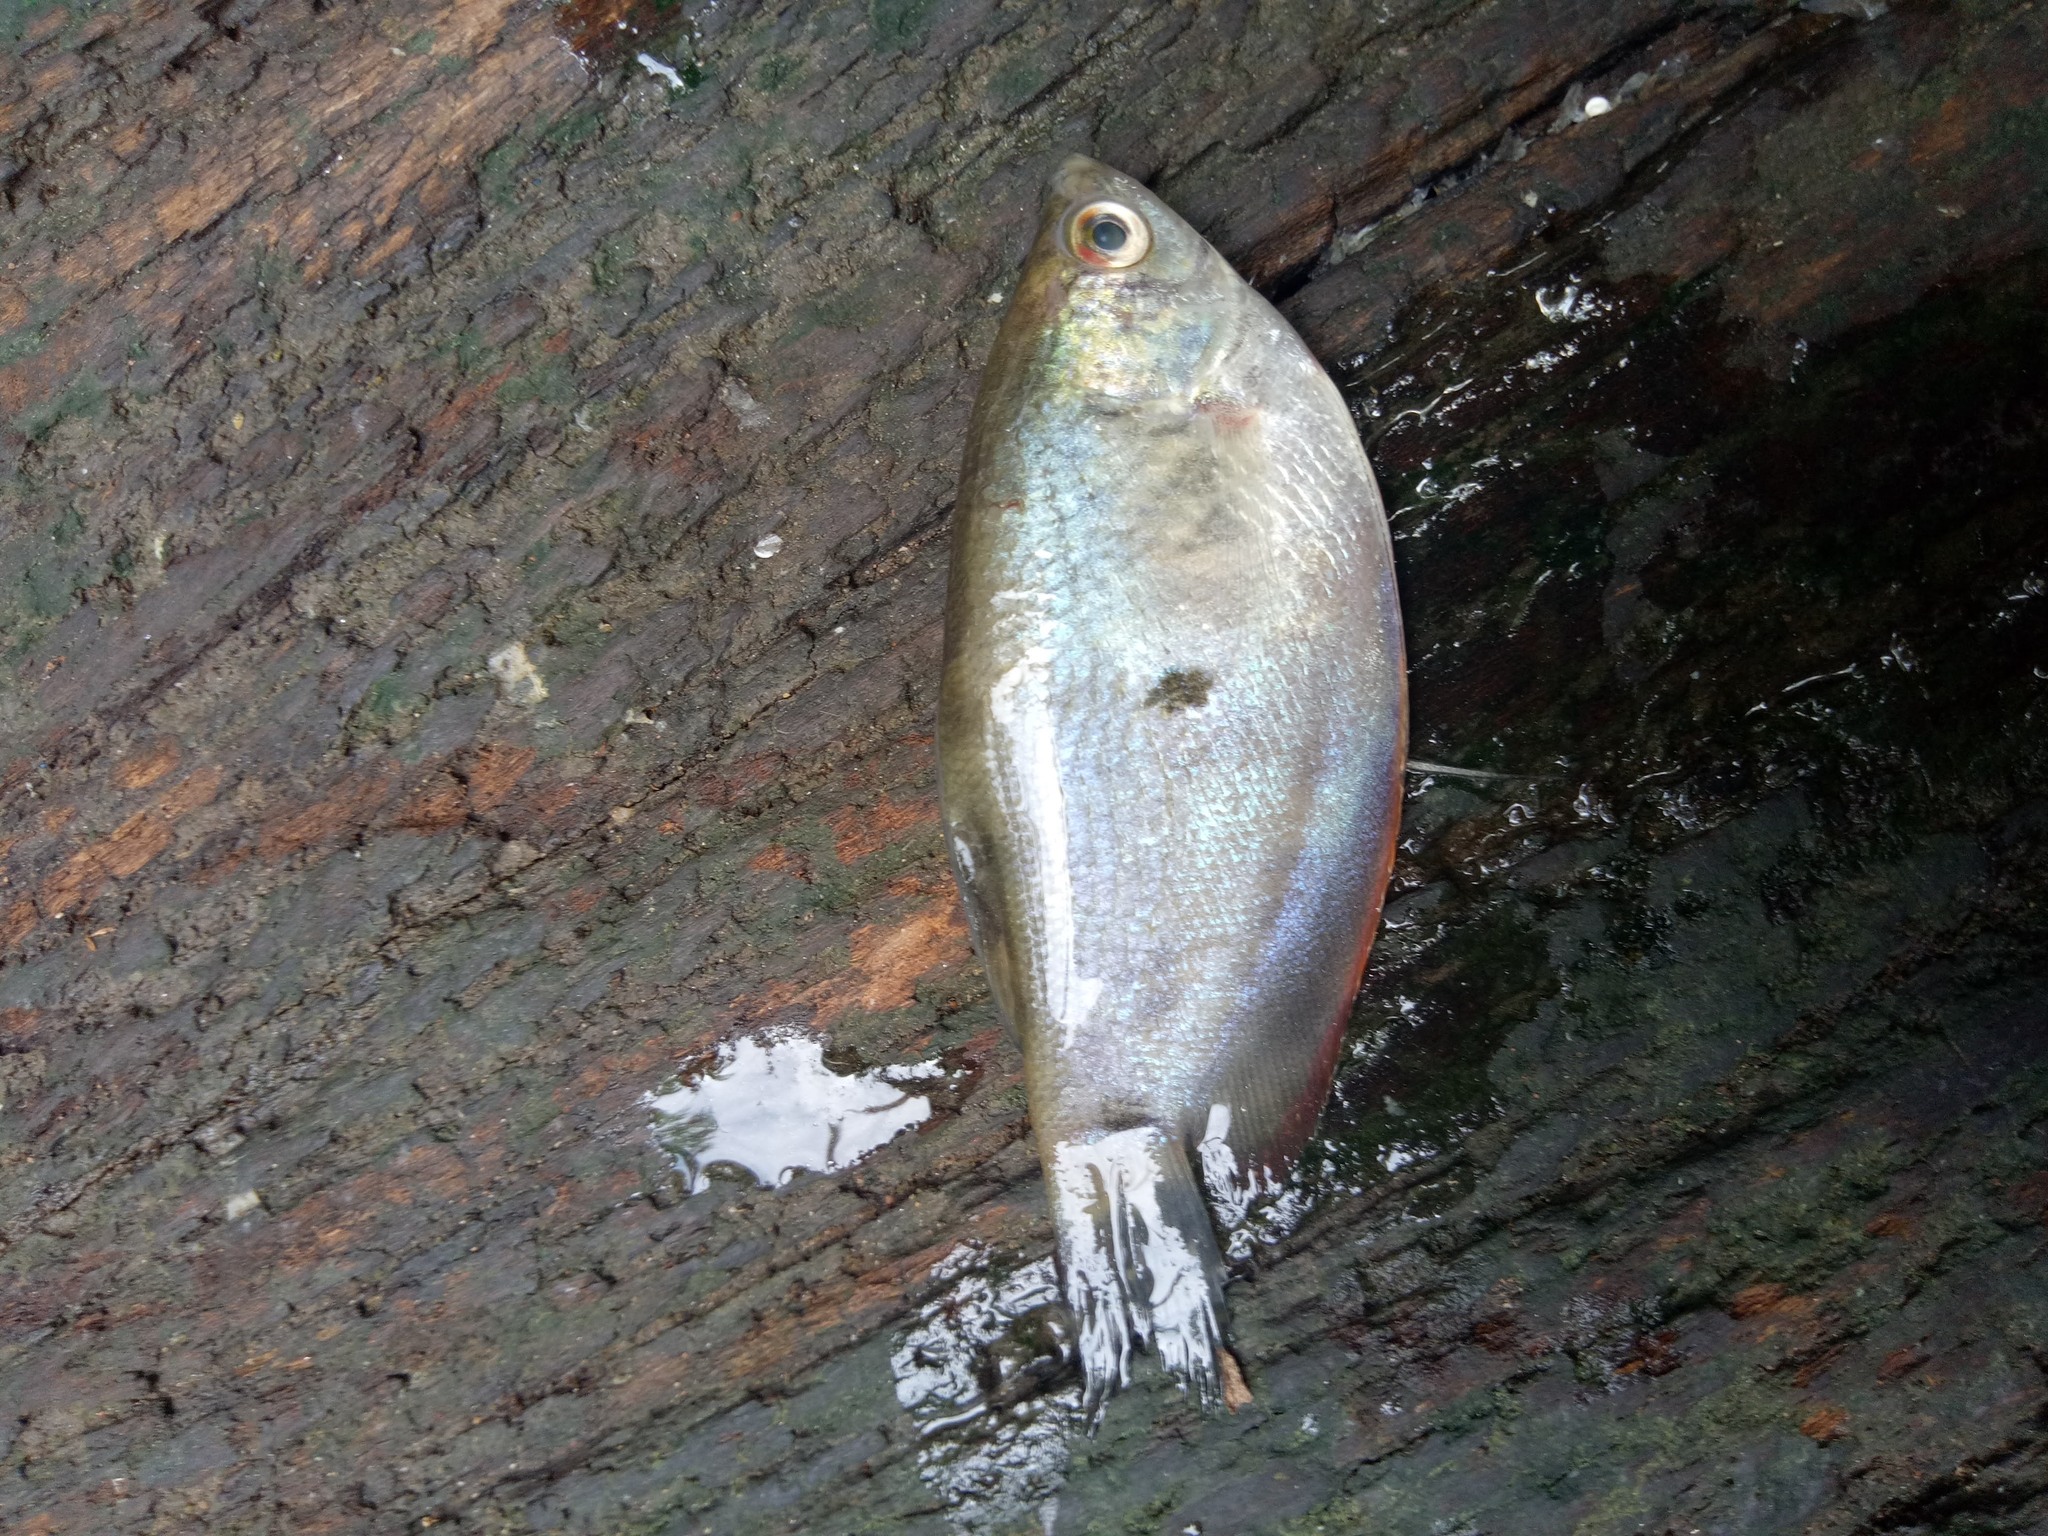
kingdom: Animalia
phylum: Chordata
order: Perciformes
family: Osphronemidae
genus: Trichopodus
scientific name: Trichopodus trichopterus
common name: Blue gourami
